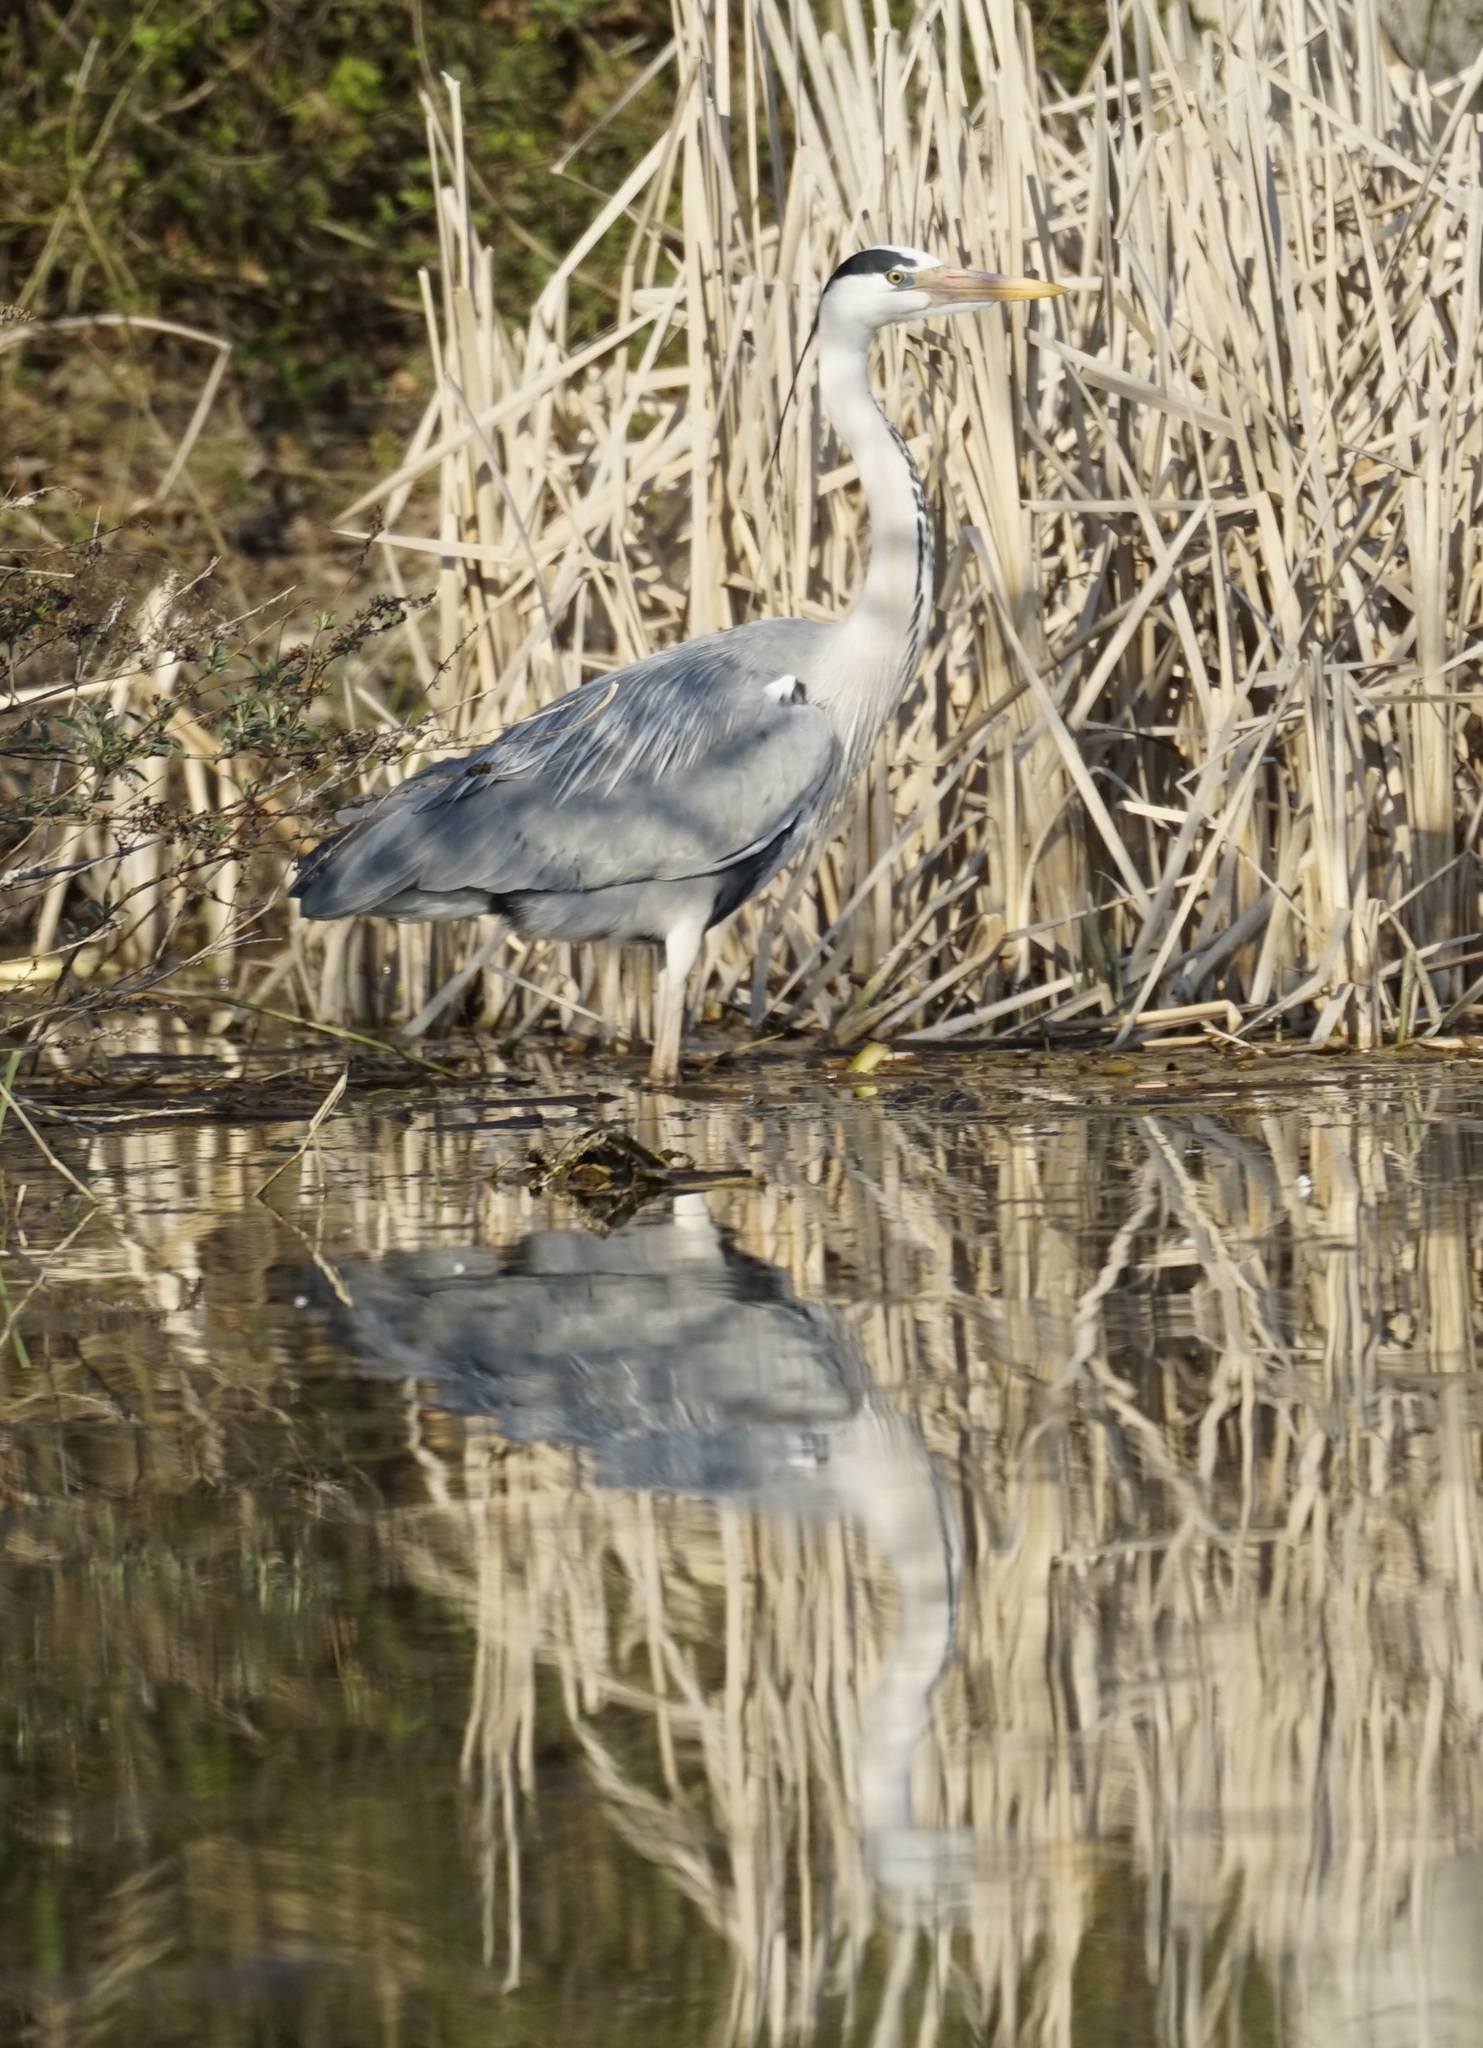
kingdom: Animalia
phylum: Chordata
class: Aves
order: Pelecaniformes
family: Ardeidae
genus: Ardea
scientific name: Ardea cinerea
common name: Grey heron
